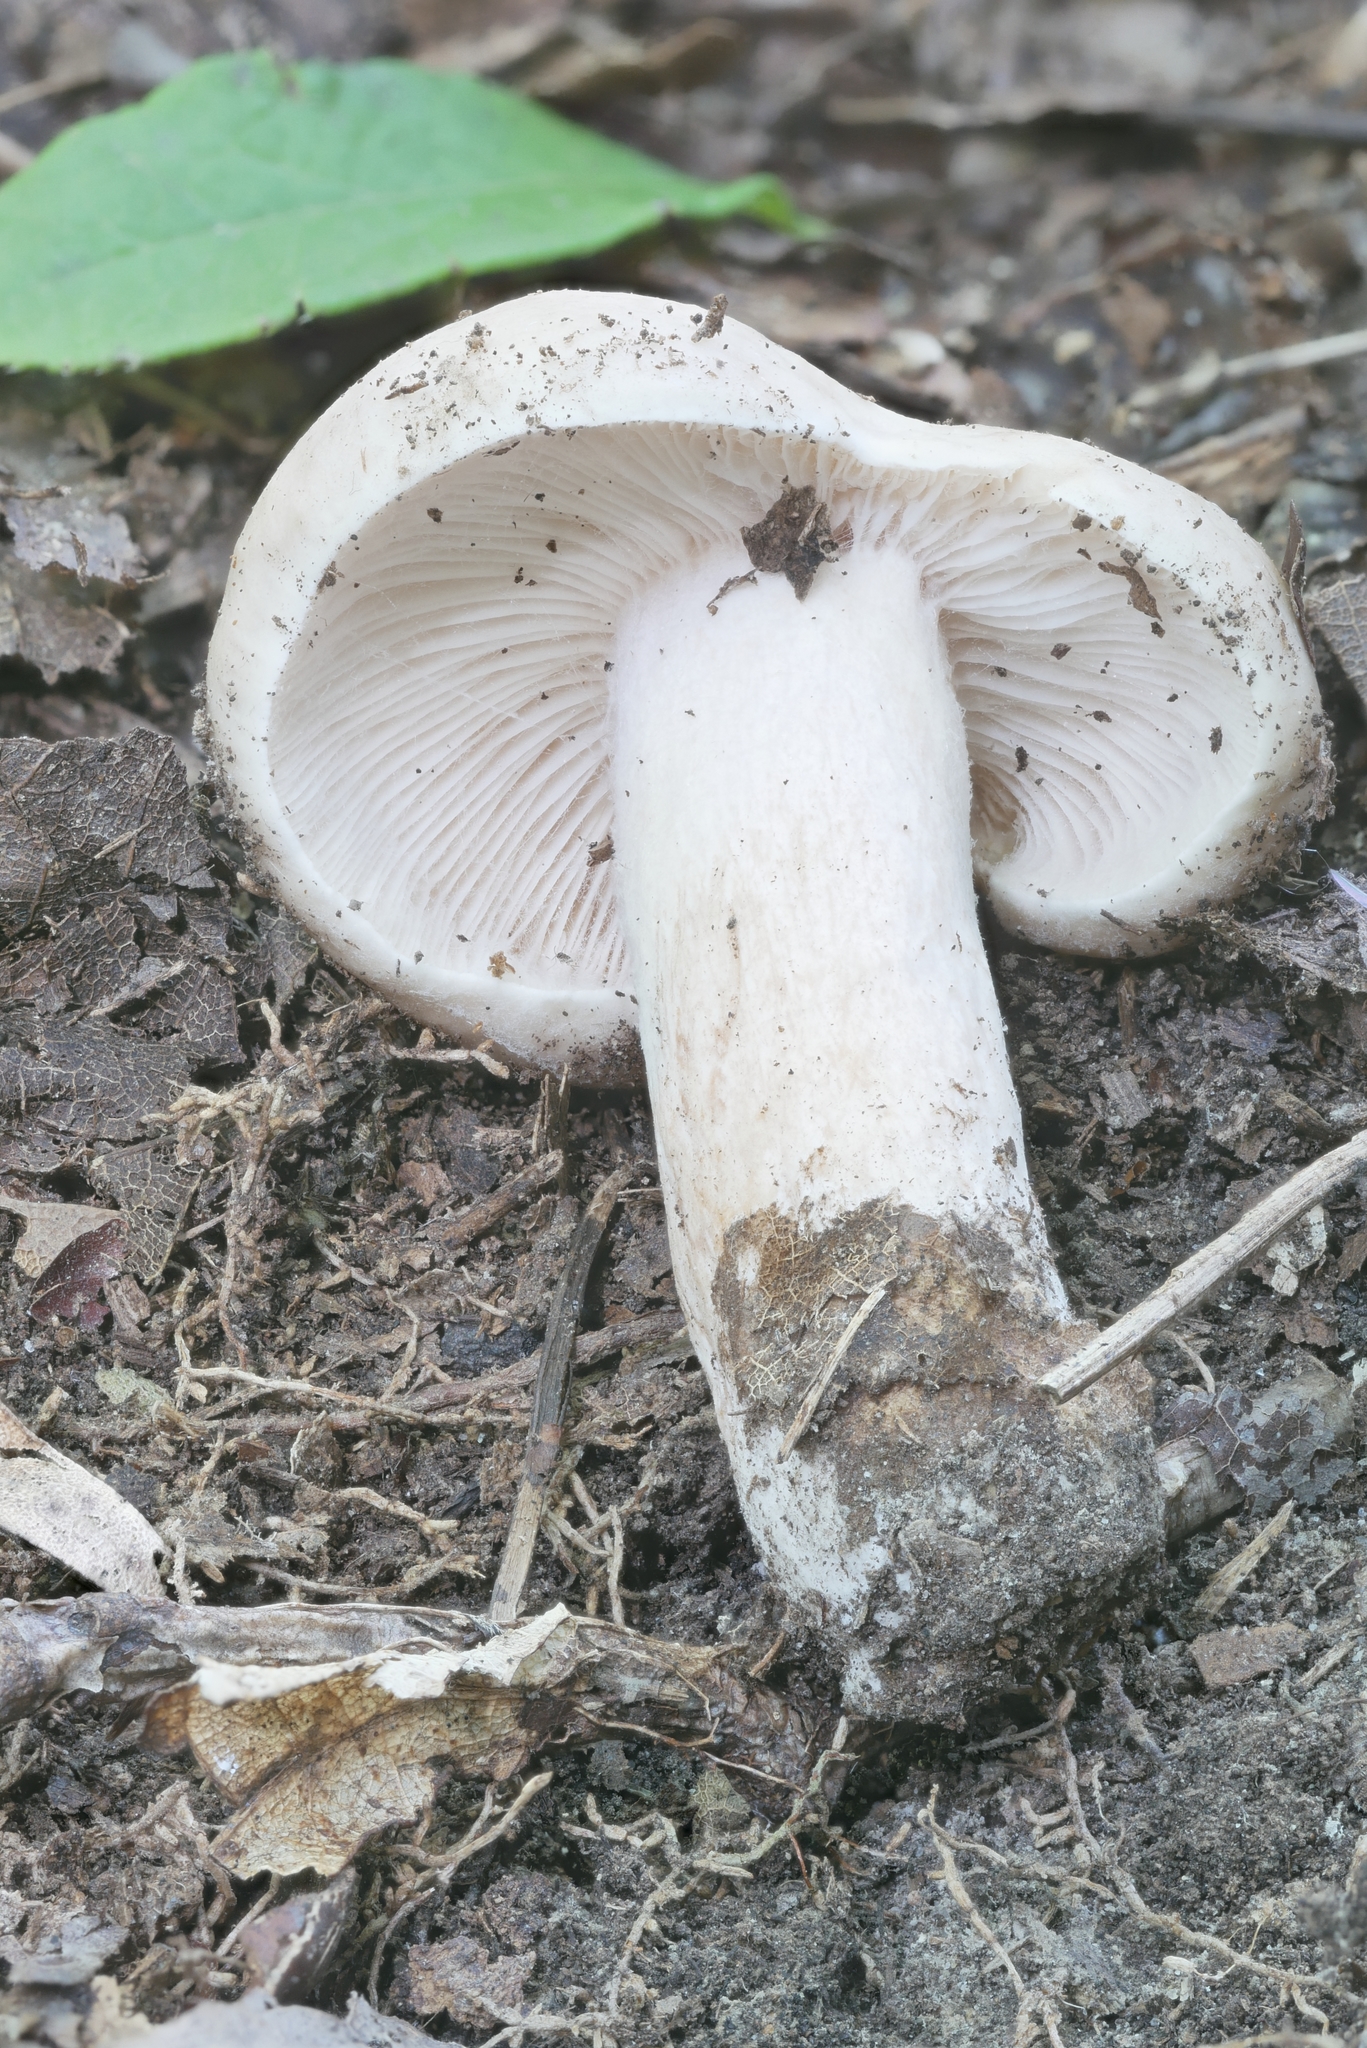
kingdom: Fungi
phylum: Basidiomycota
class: Agaricomycetes
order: Russulales
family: Russulaceae
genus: Lactarius
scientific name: Lactarius imperceptus
